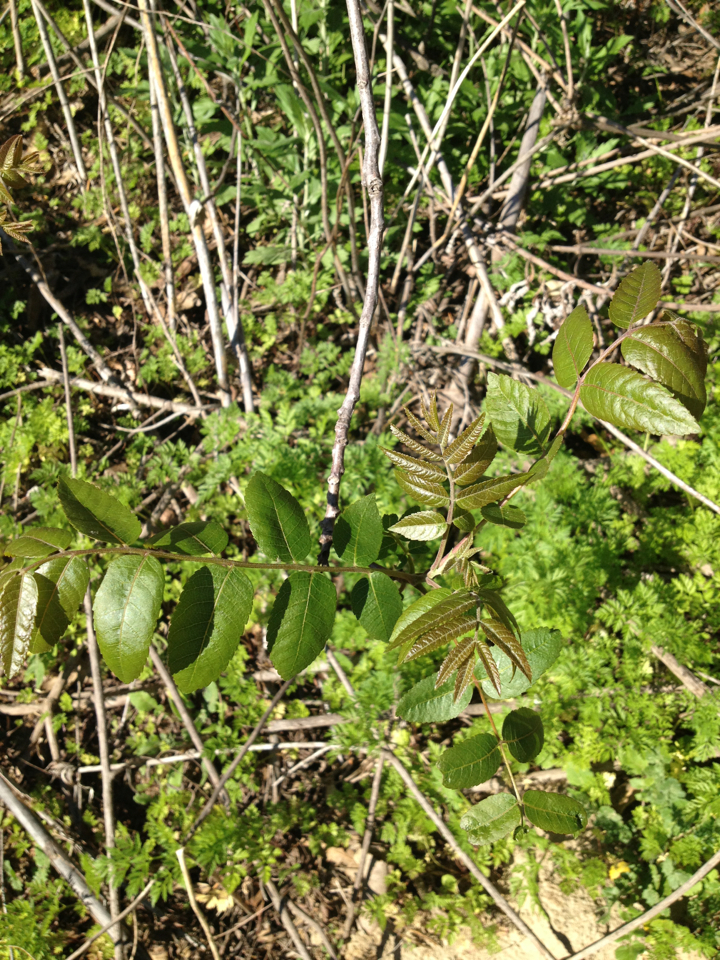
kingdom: Plantae
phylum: Tracheophyta
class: Magnoliopsida
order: Dipsacales
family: Viburnaceae
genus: Sambucus
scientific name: Sambucus cerulea
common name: Blue elder
